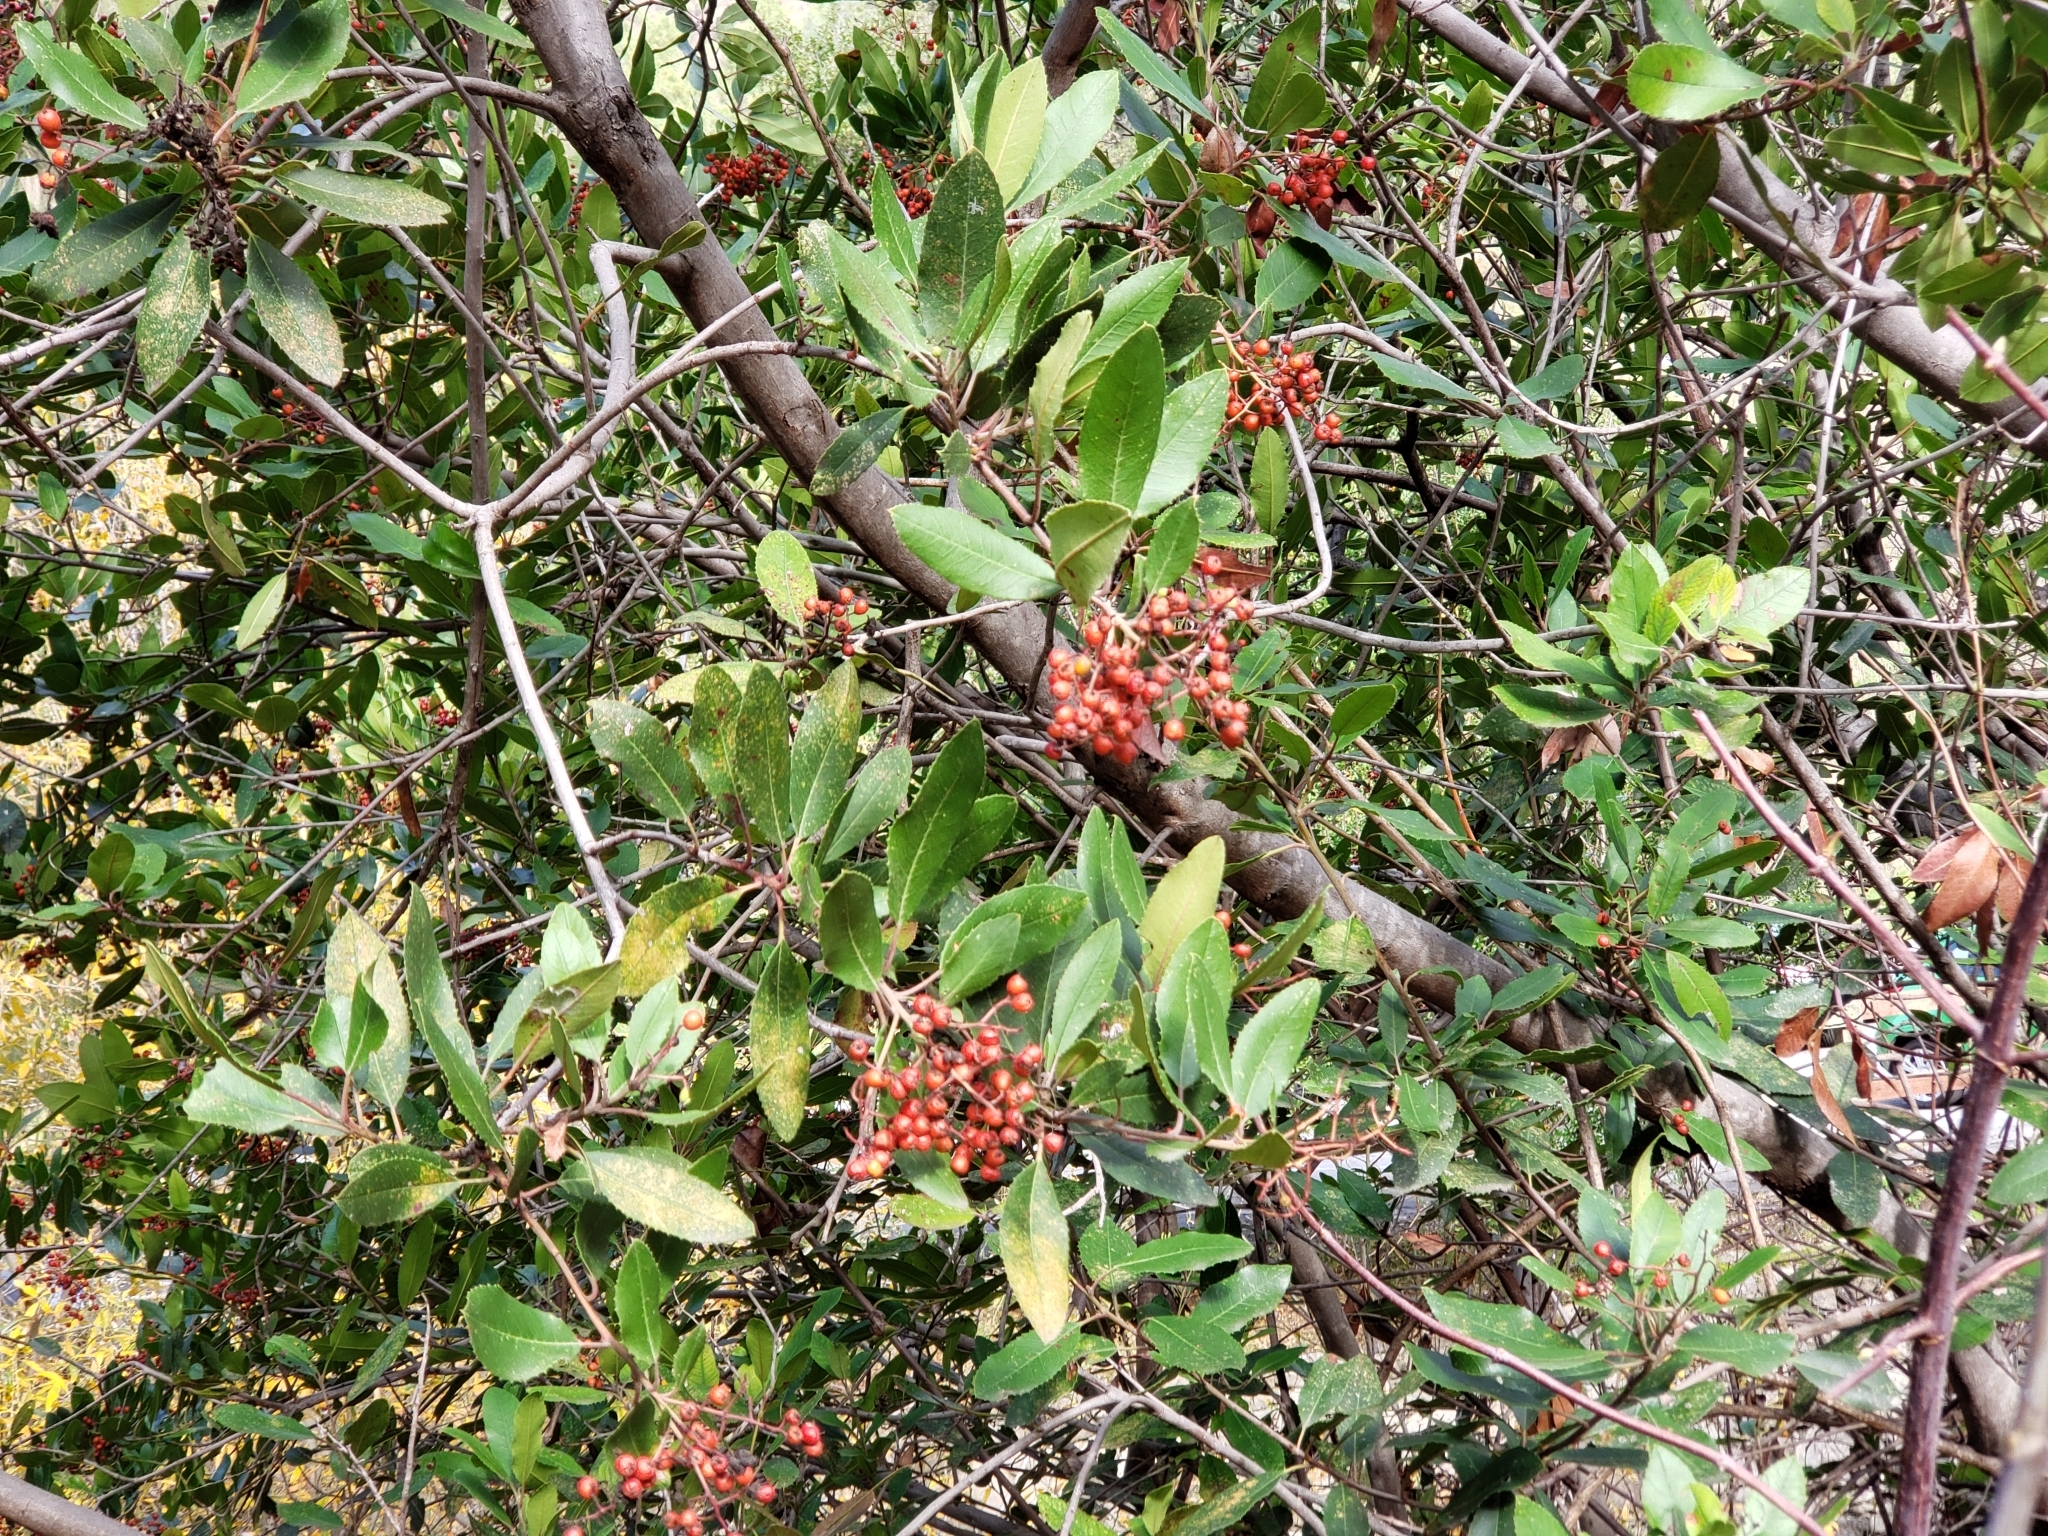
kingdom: Plantae
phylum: Tracheophyta
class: Magnoliopsida
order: Rosales
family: Rosaceae
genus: Heteromeles
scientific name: Heteromeles arbutifolia
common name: California-holly
